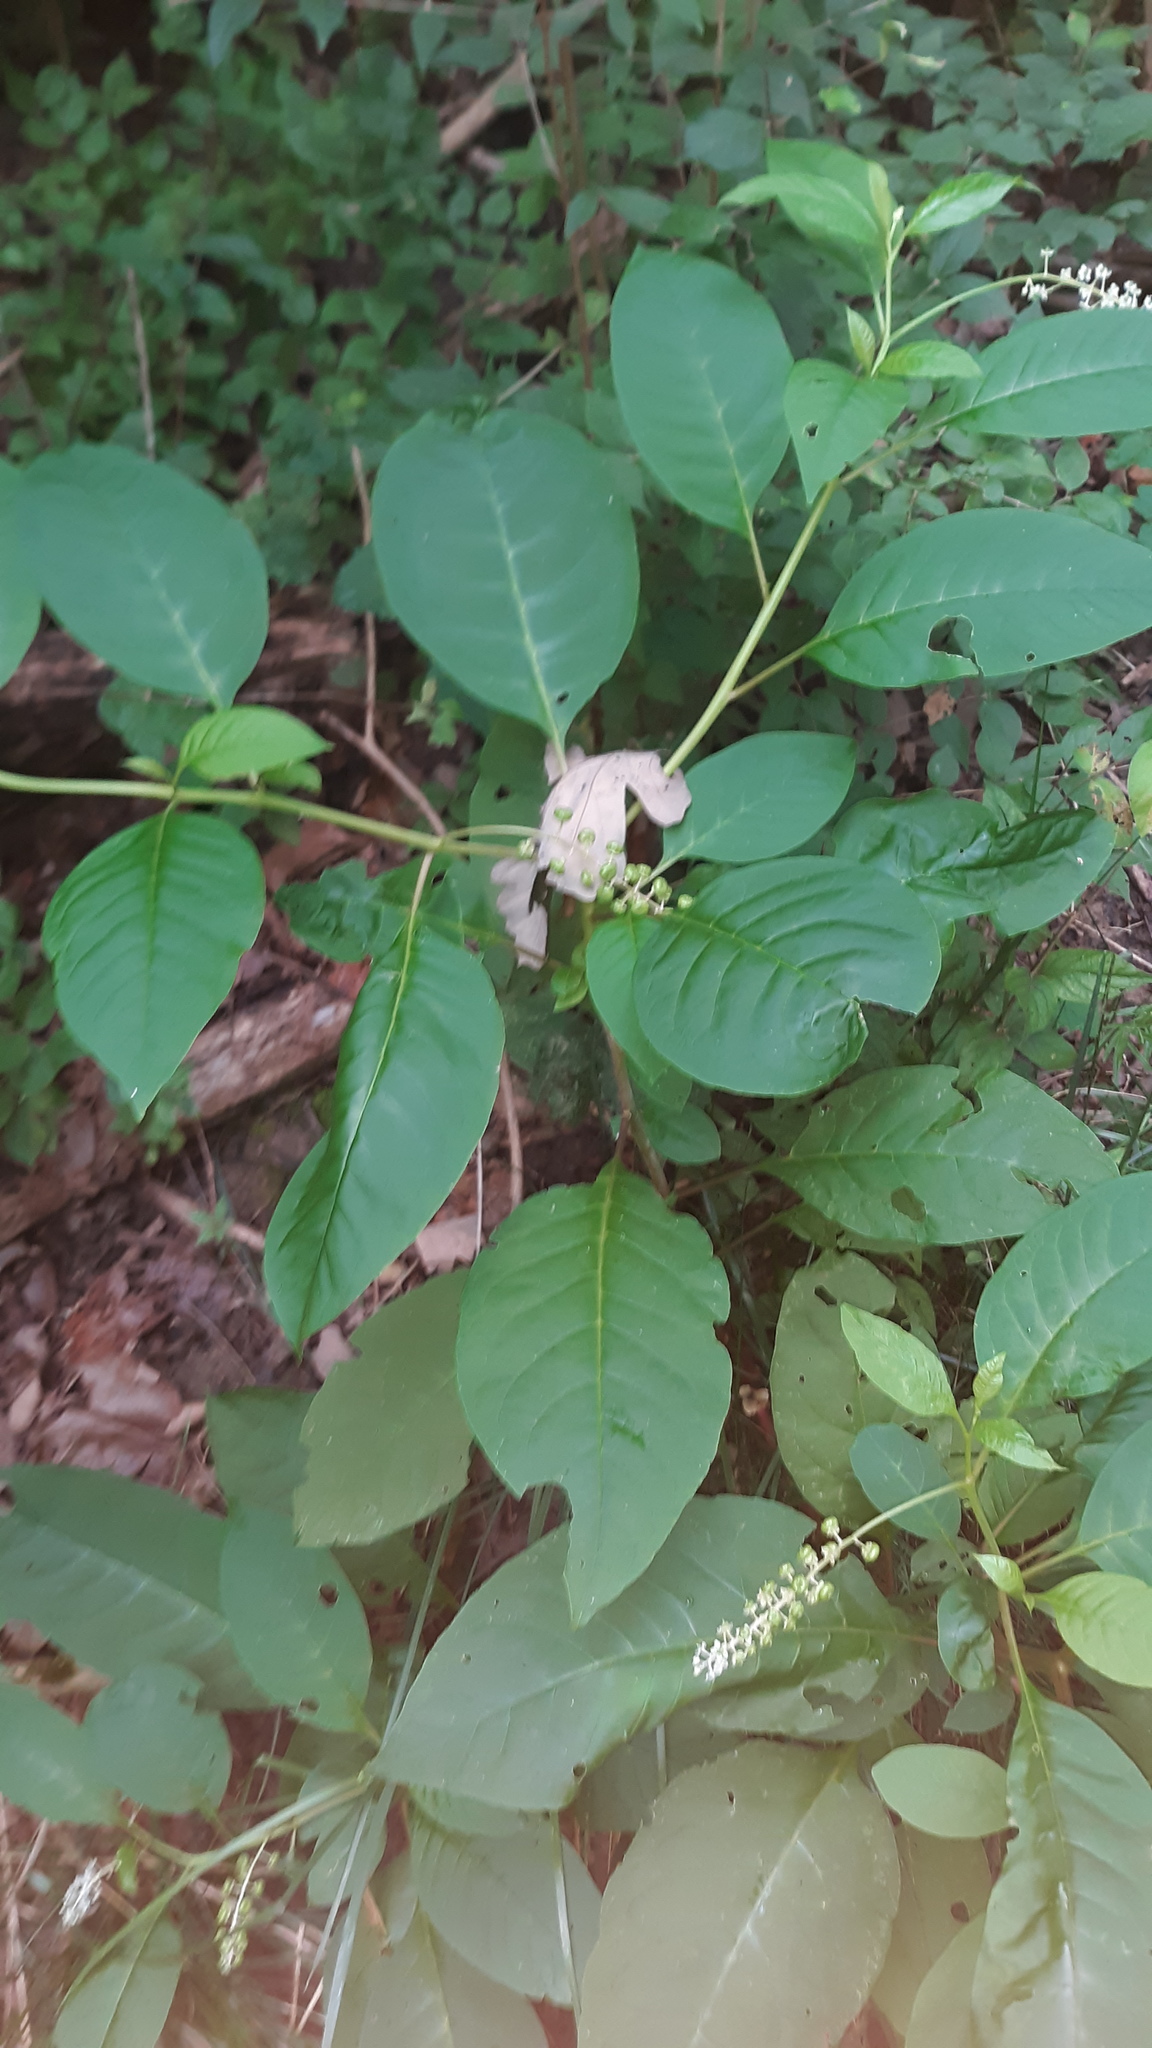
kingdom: Plantae
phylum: Tracheophyta
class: Magnoliopsida
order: Caryophyllales
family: Phytolaccaceae
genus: Phytolacca
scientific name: Phytolacca americana
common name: American pokeweed
